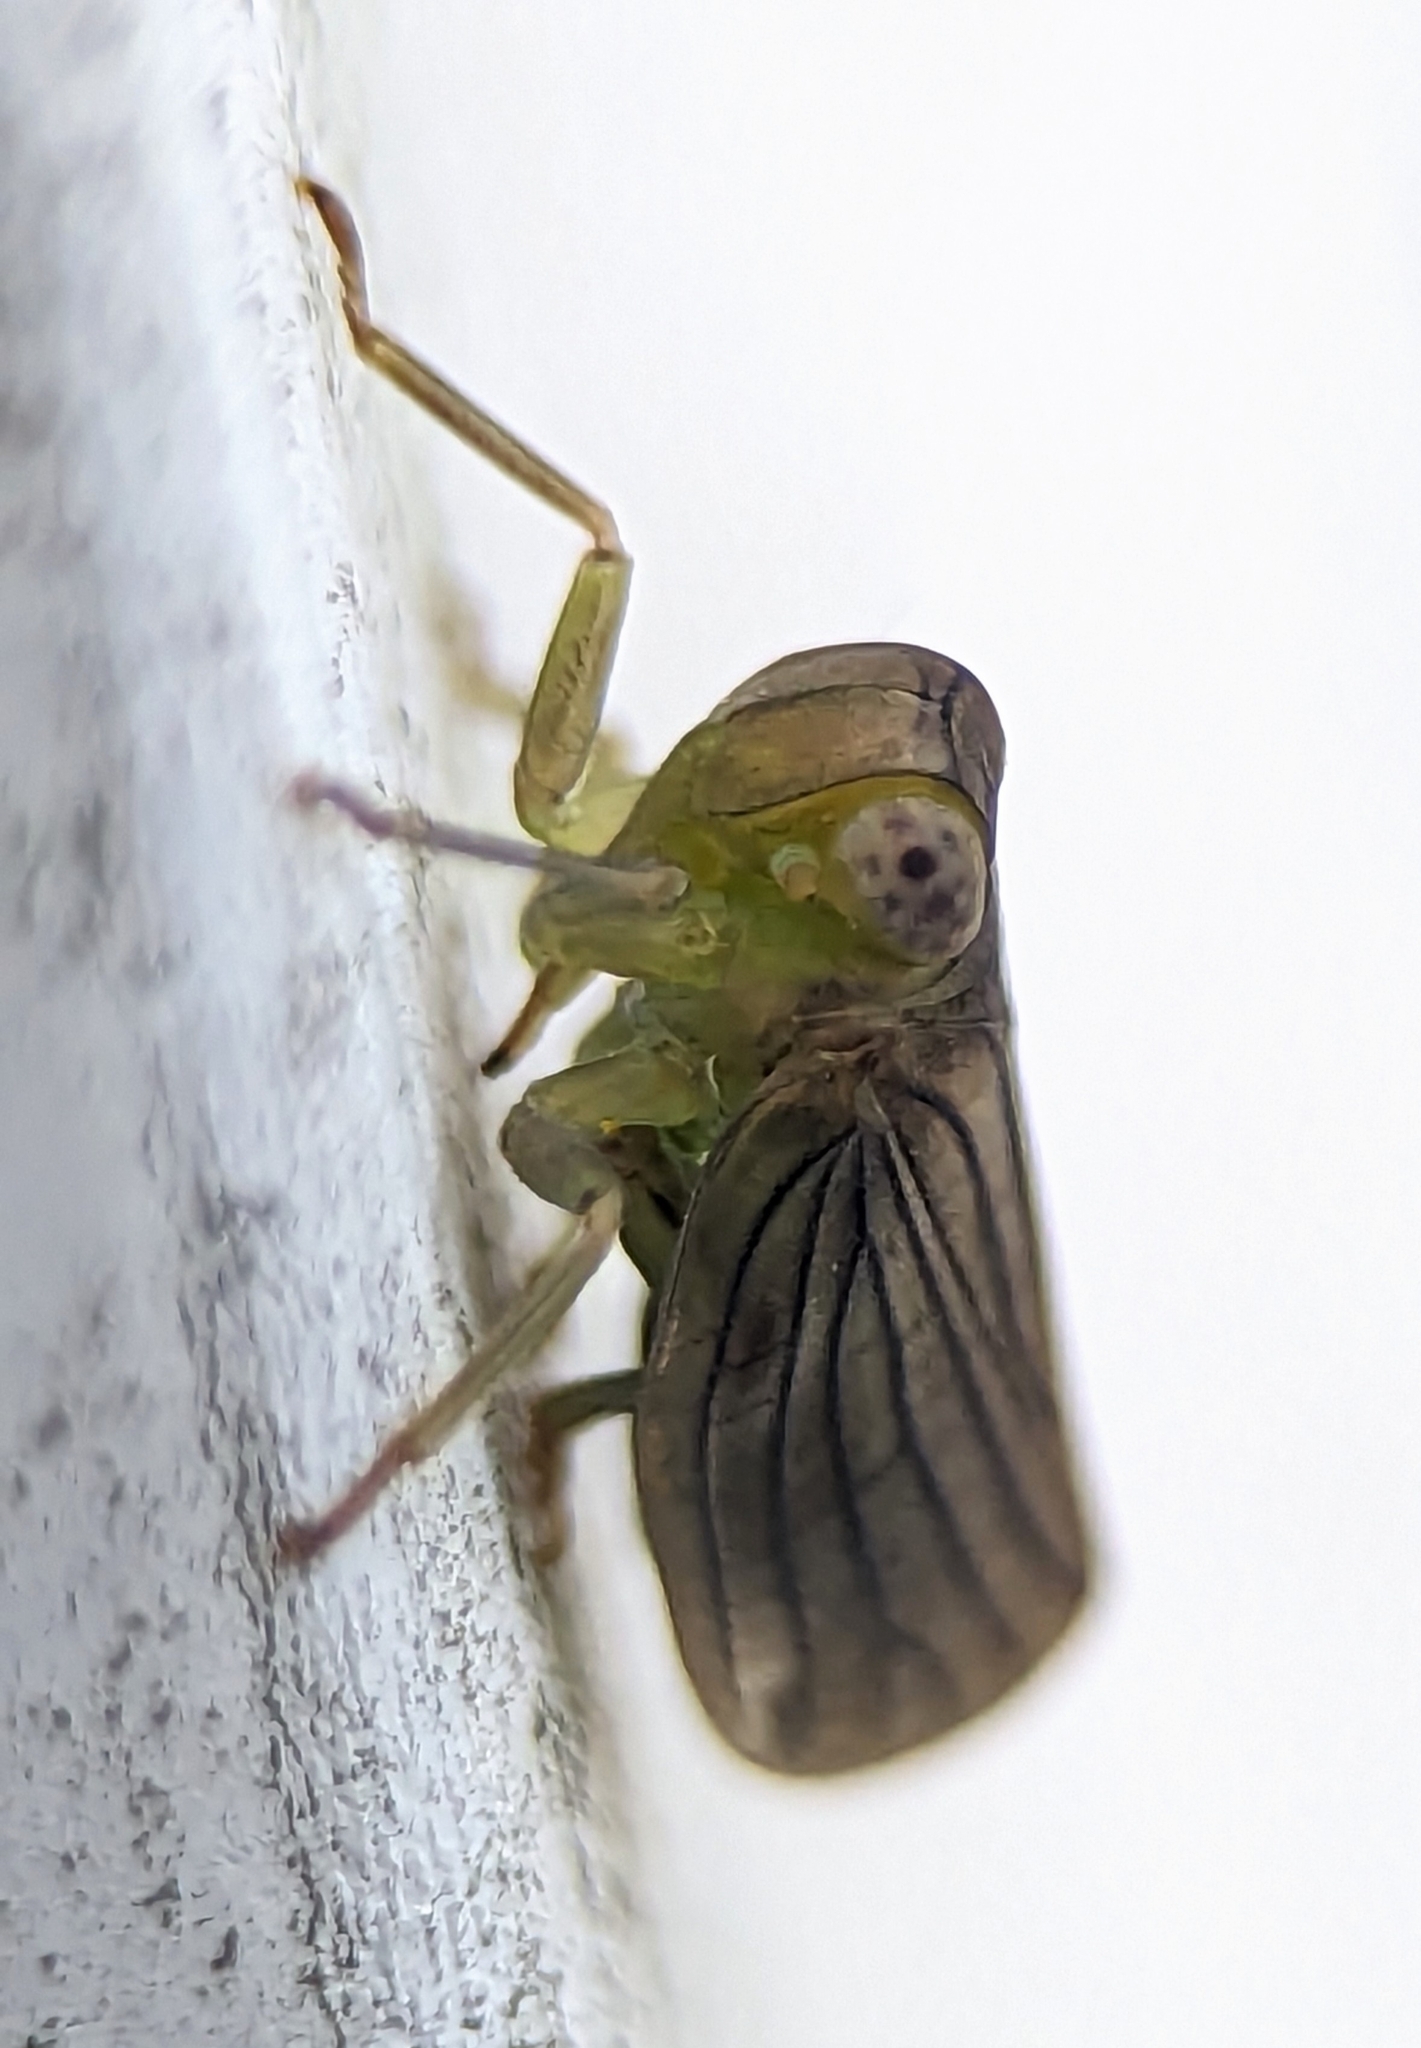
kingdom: Animalia
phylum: Arthropoda
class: Insecta
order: Hemiptera
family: Issidae
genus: Aplos
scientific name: Aplos simplex
